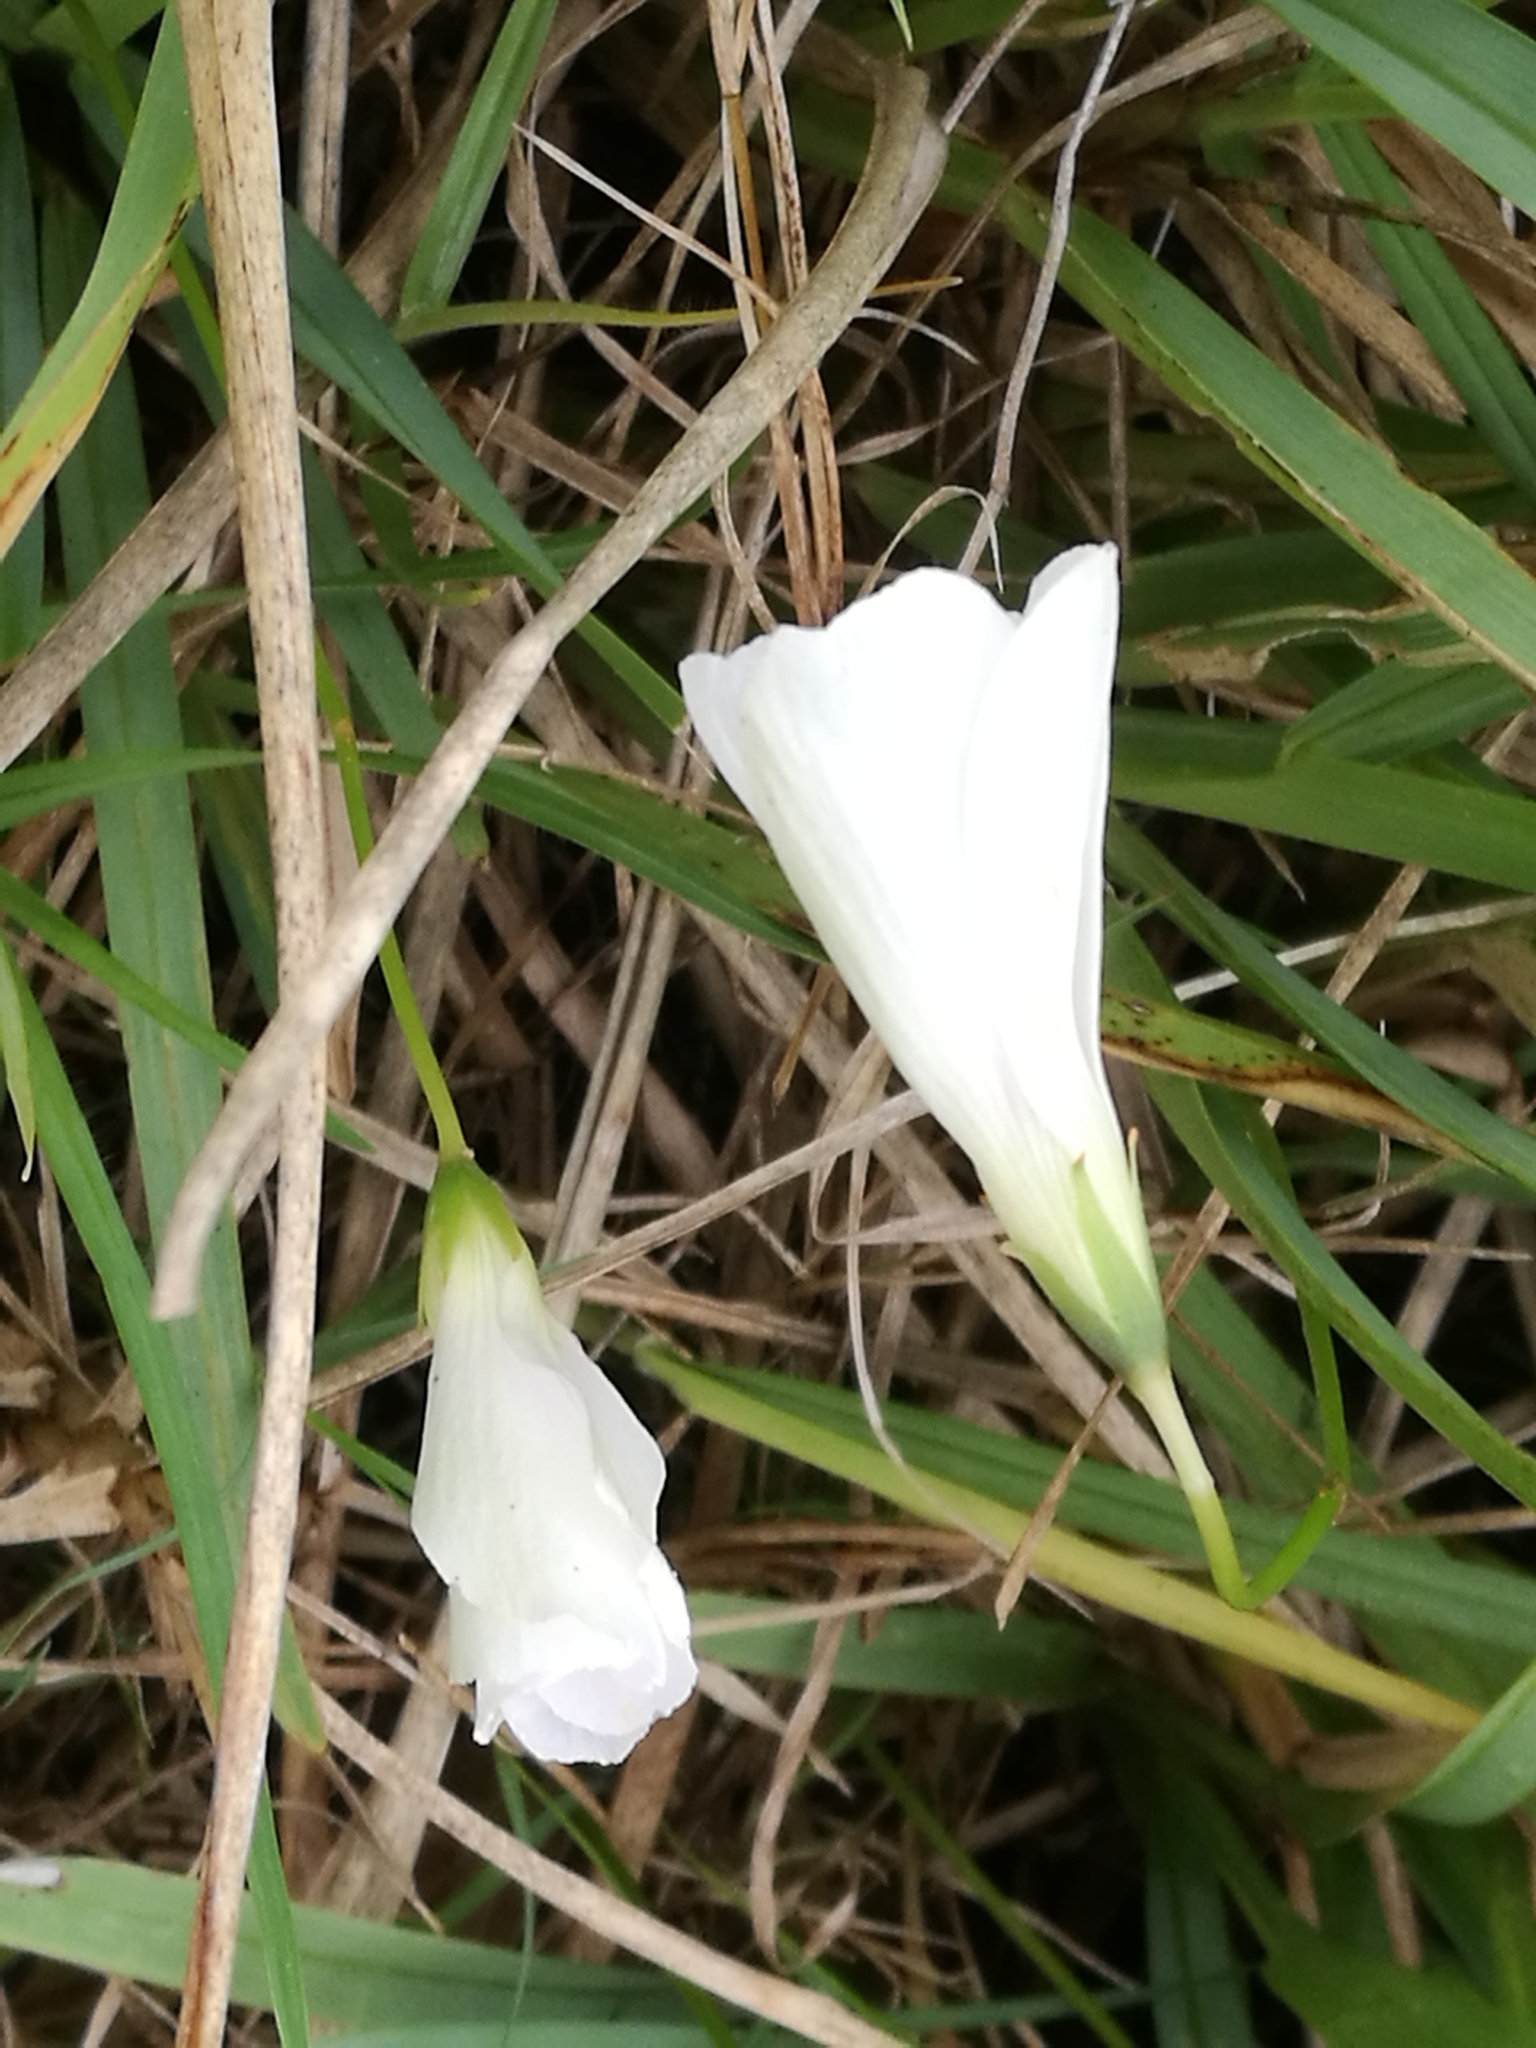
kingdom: Plantae
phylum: Tracheophyta
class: Magnoliopsida
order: Oxalidales
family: Oxalidaceae
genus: Oxalis
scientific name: Oxalis smithiana
